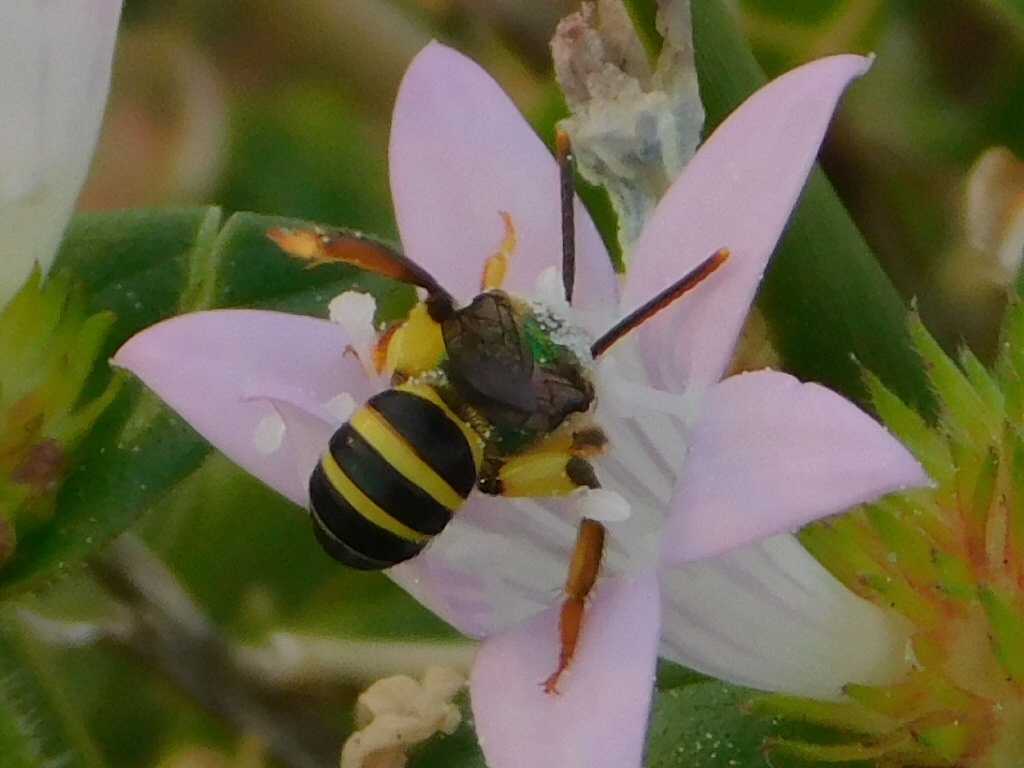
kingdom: Animalia
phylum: Arthropoda
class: Insecta
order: Hymenoptera
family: Halictidae
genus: Agapostemon
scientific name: Agapostemon splendens
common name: Brown-winged striped sweat bee
